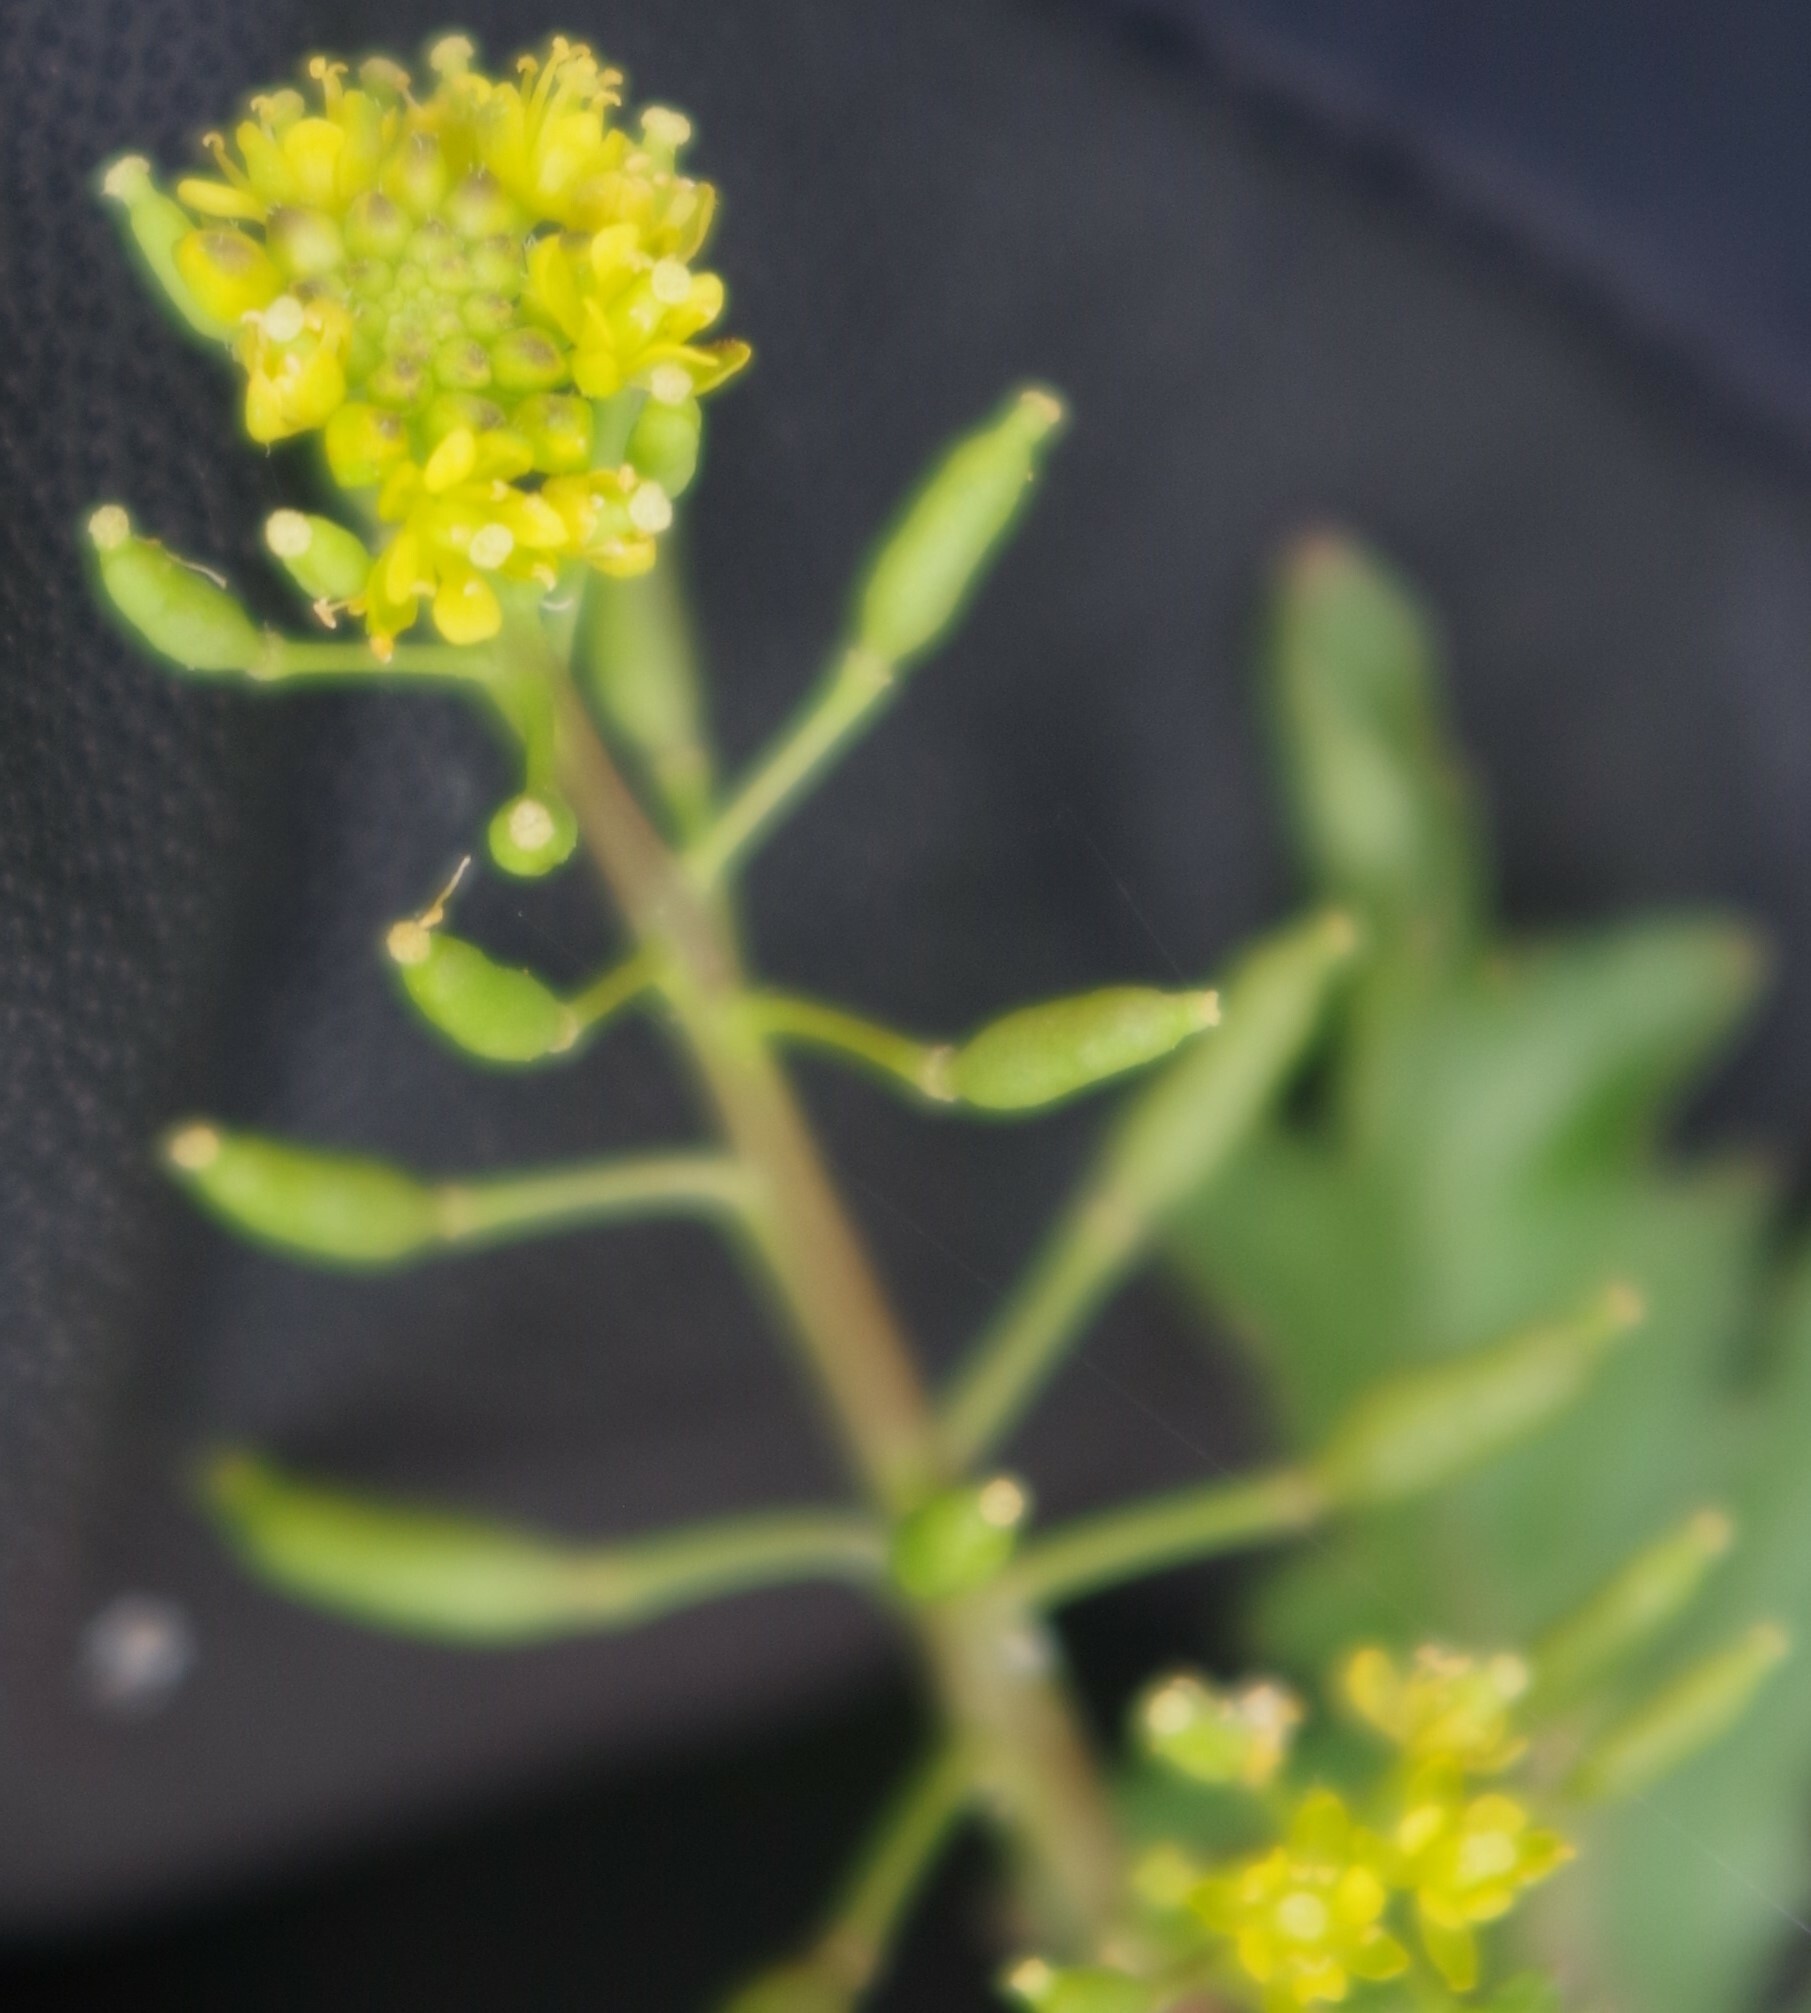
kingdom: Plantae
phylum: Tracheophyta
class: Magnoliopsida
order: Brassicales
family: Brassicaceae
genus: Rorippa
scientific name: Rorippa palustris
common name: Marsh yellow-cress
